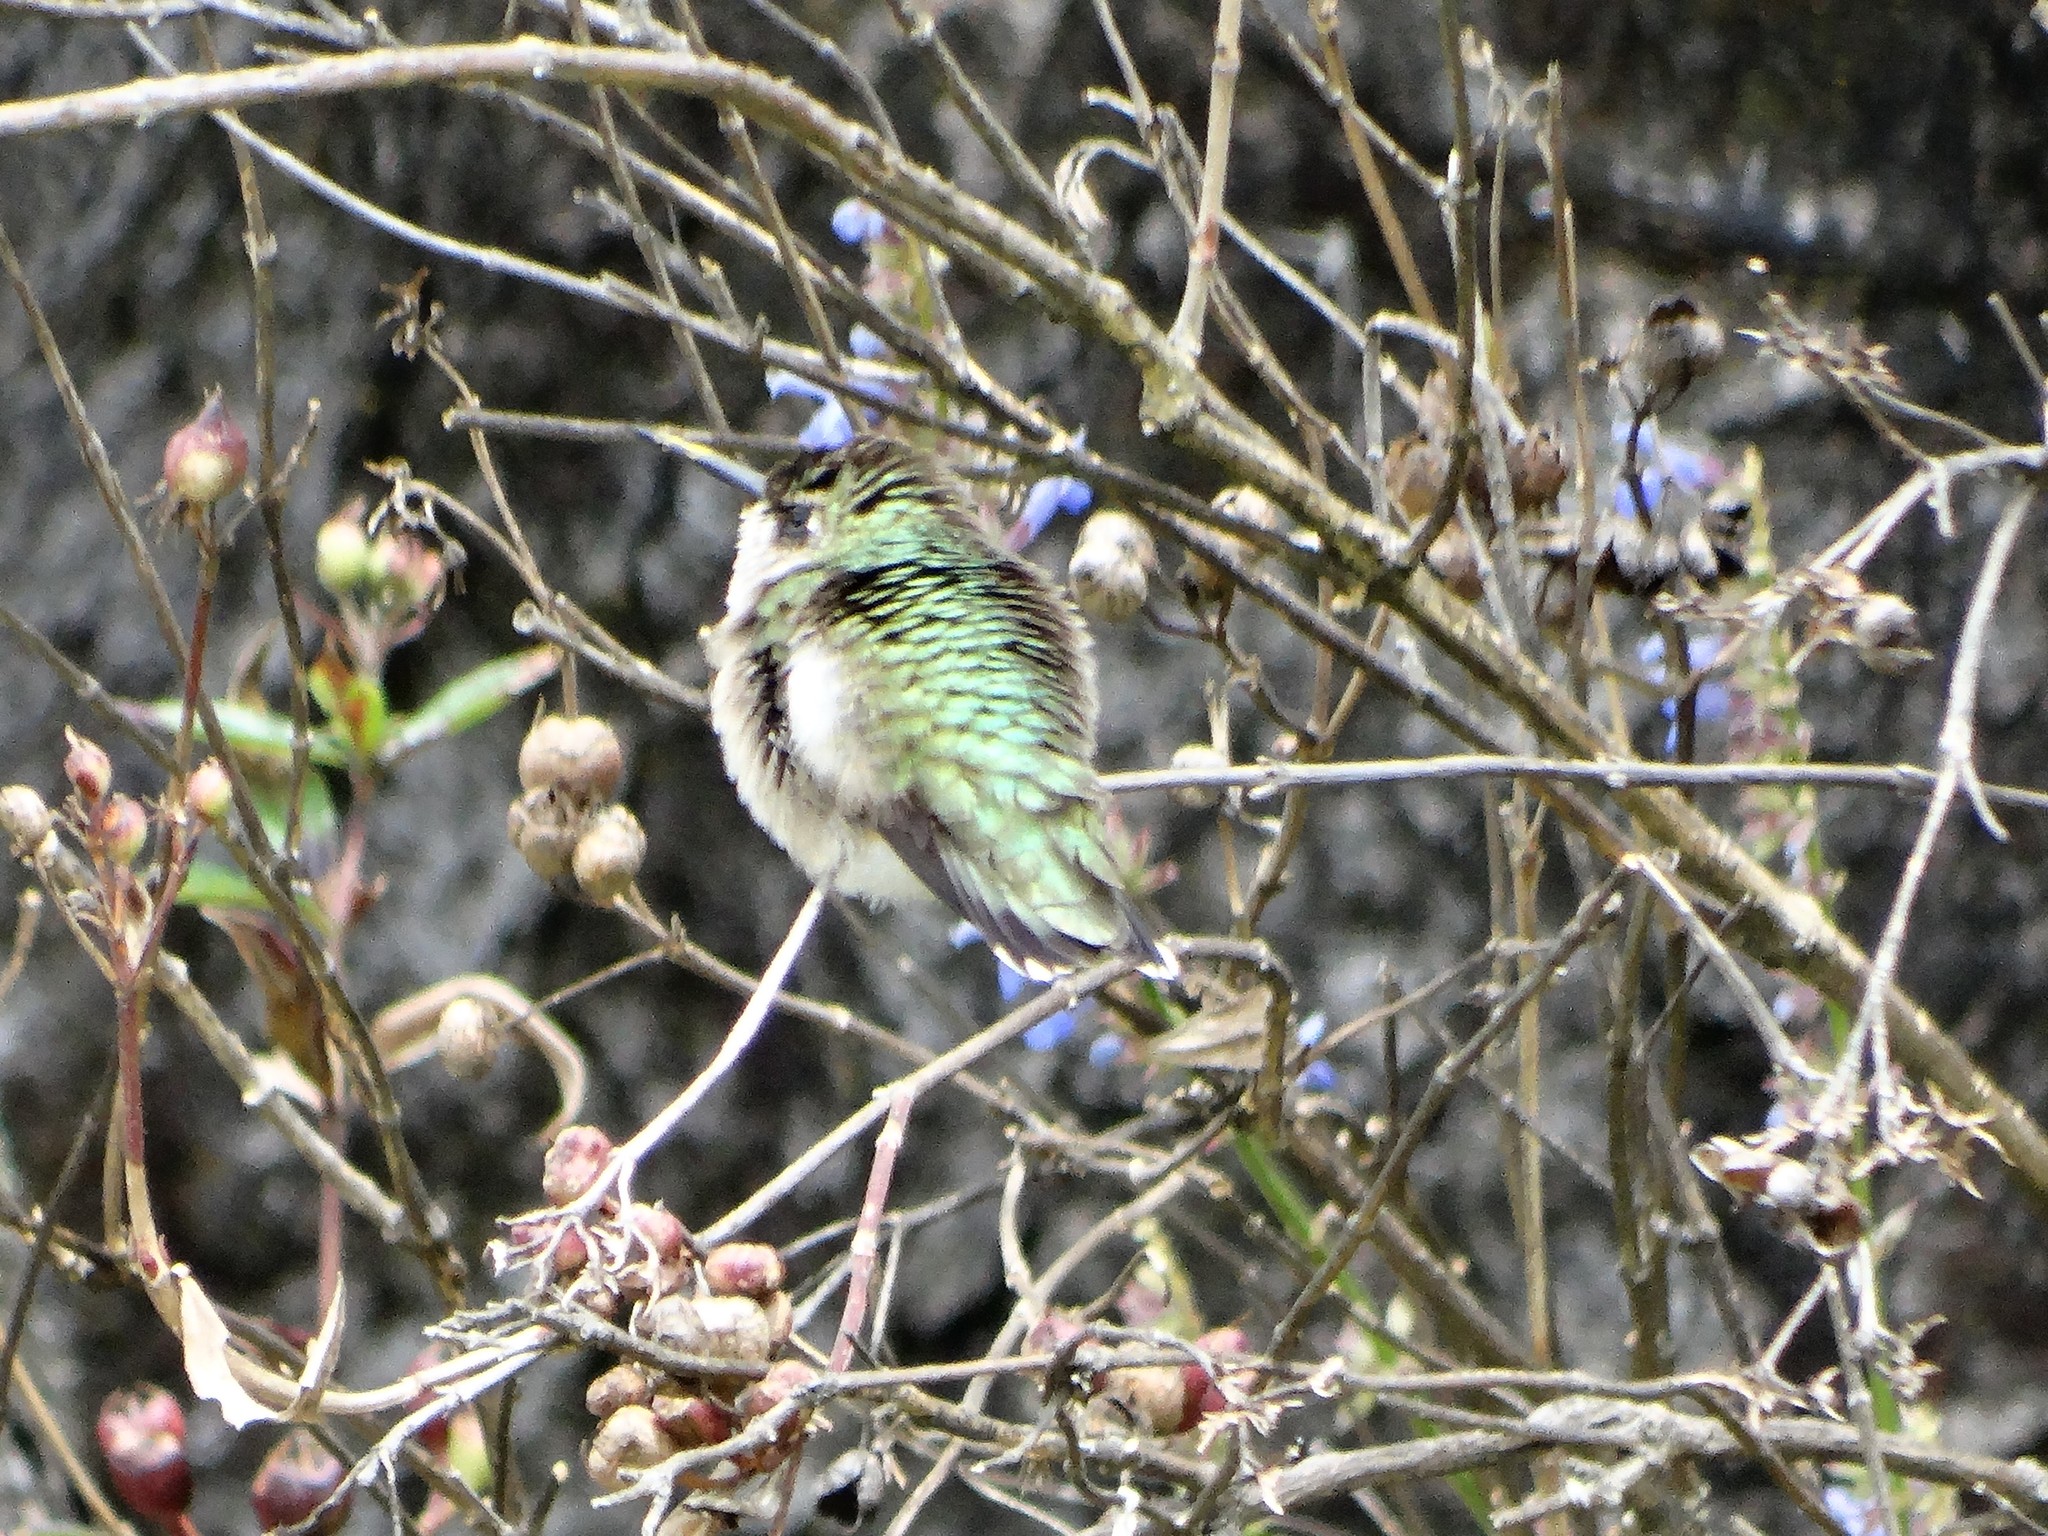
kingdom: Animalia
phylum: Chordata
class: Aves
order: Apodiformes
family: Trochilidae
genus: Archilochus
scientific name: Archilochus colubris
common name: Ruby-throated hummingbird
